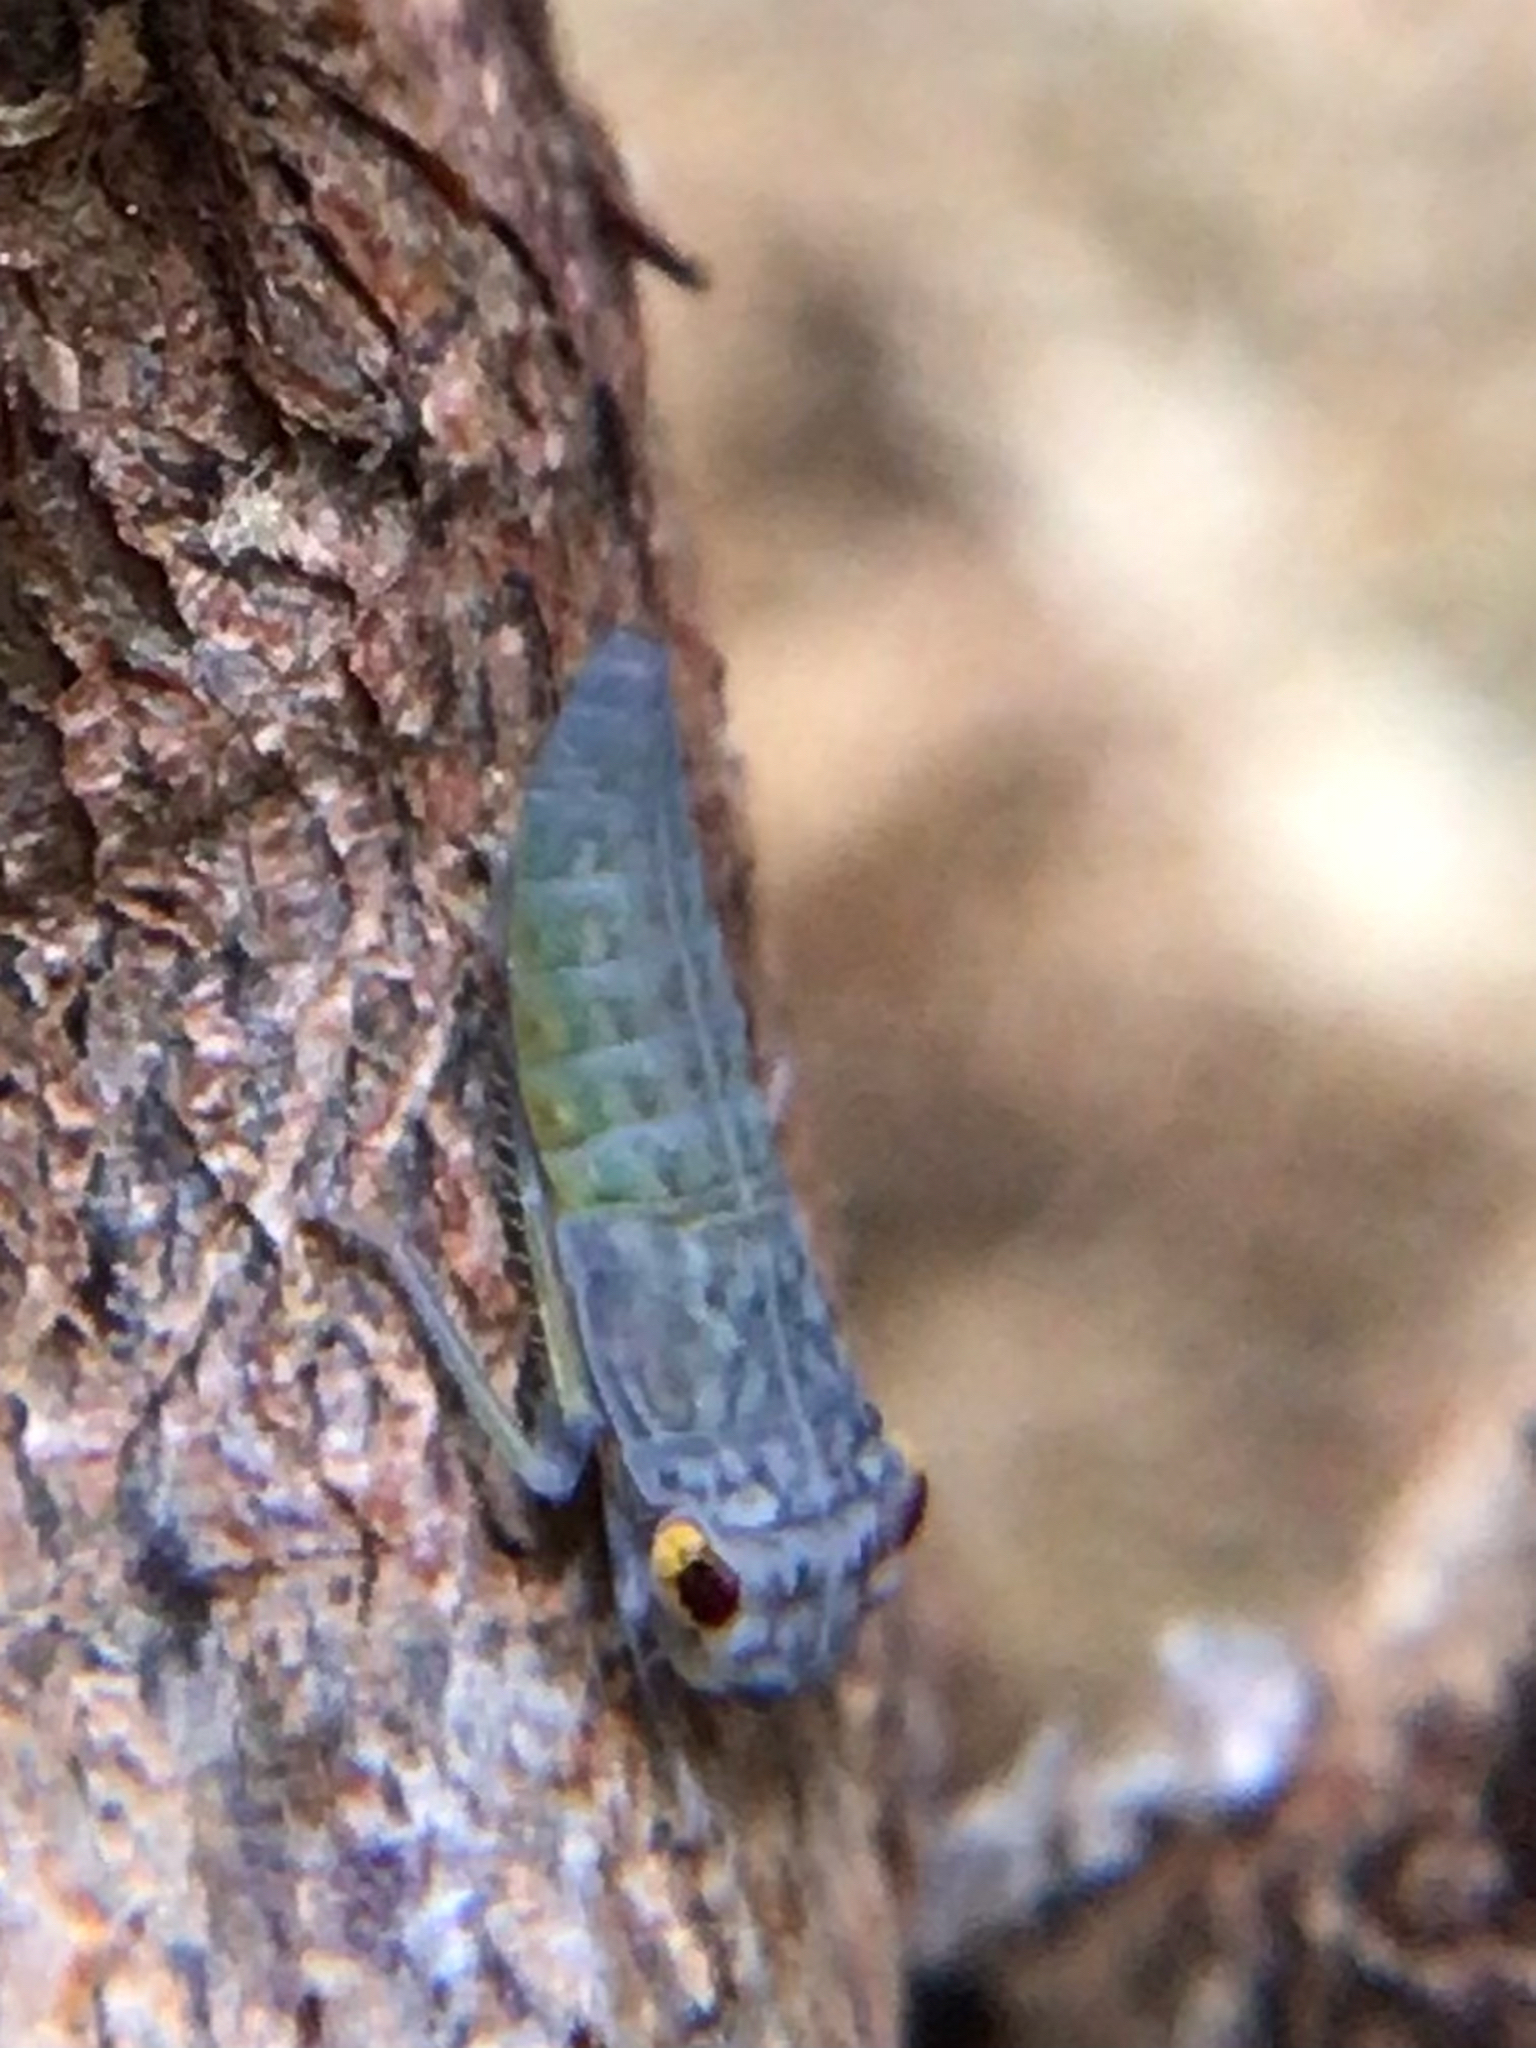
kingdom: Animalia
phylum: Arthropoda
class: Insecta
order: Hemiptera
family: Cicadellidae
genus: Oncometopia
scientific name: Oncometopia orbona
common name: Broad-headed sharpshooter
